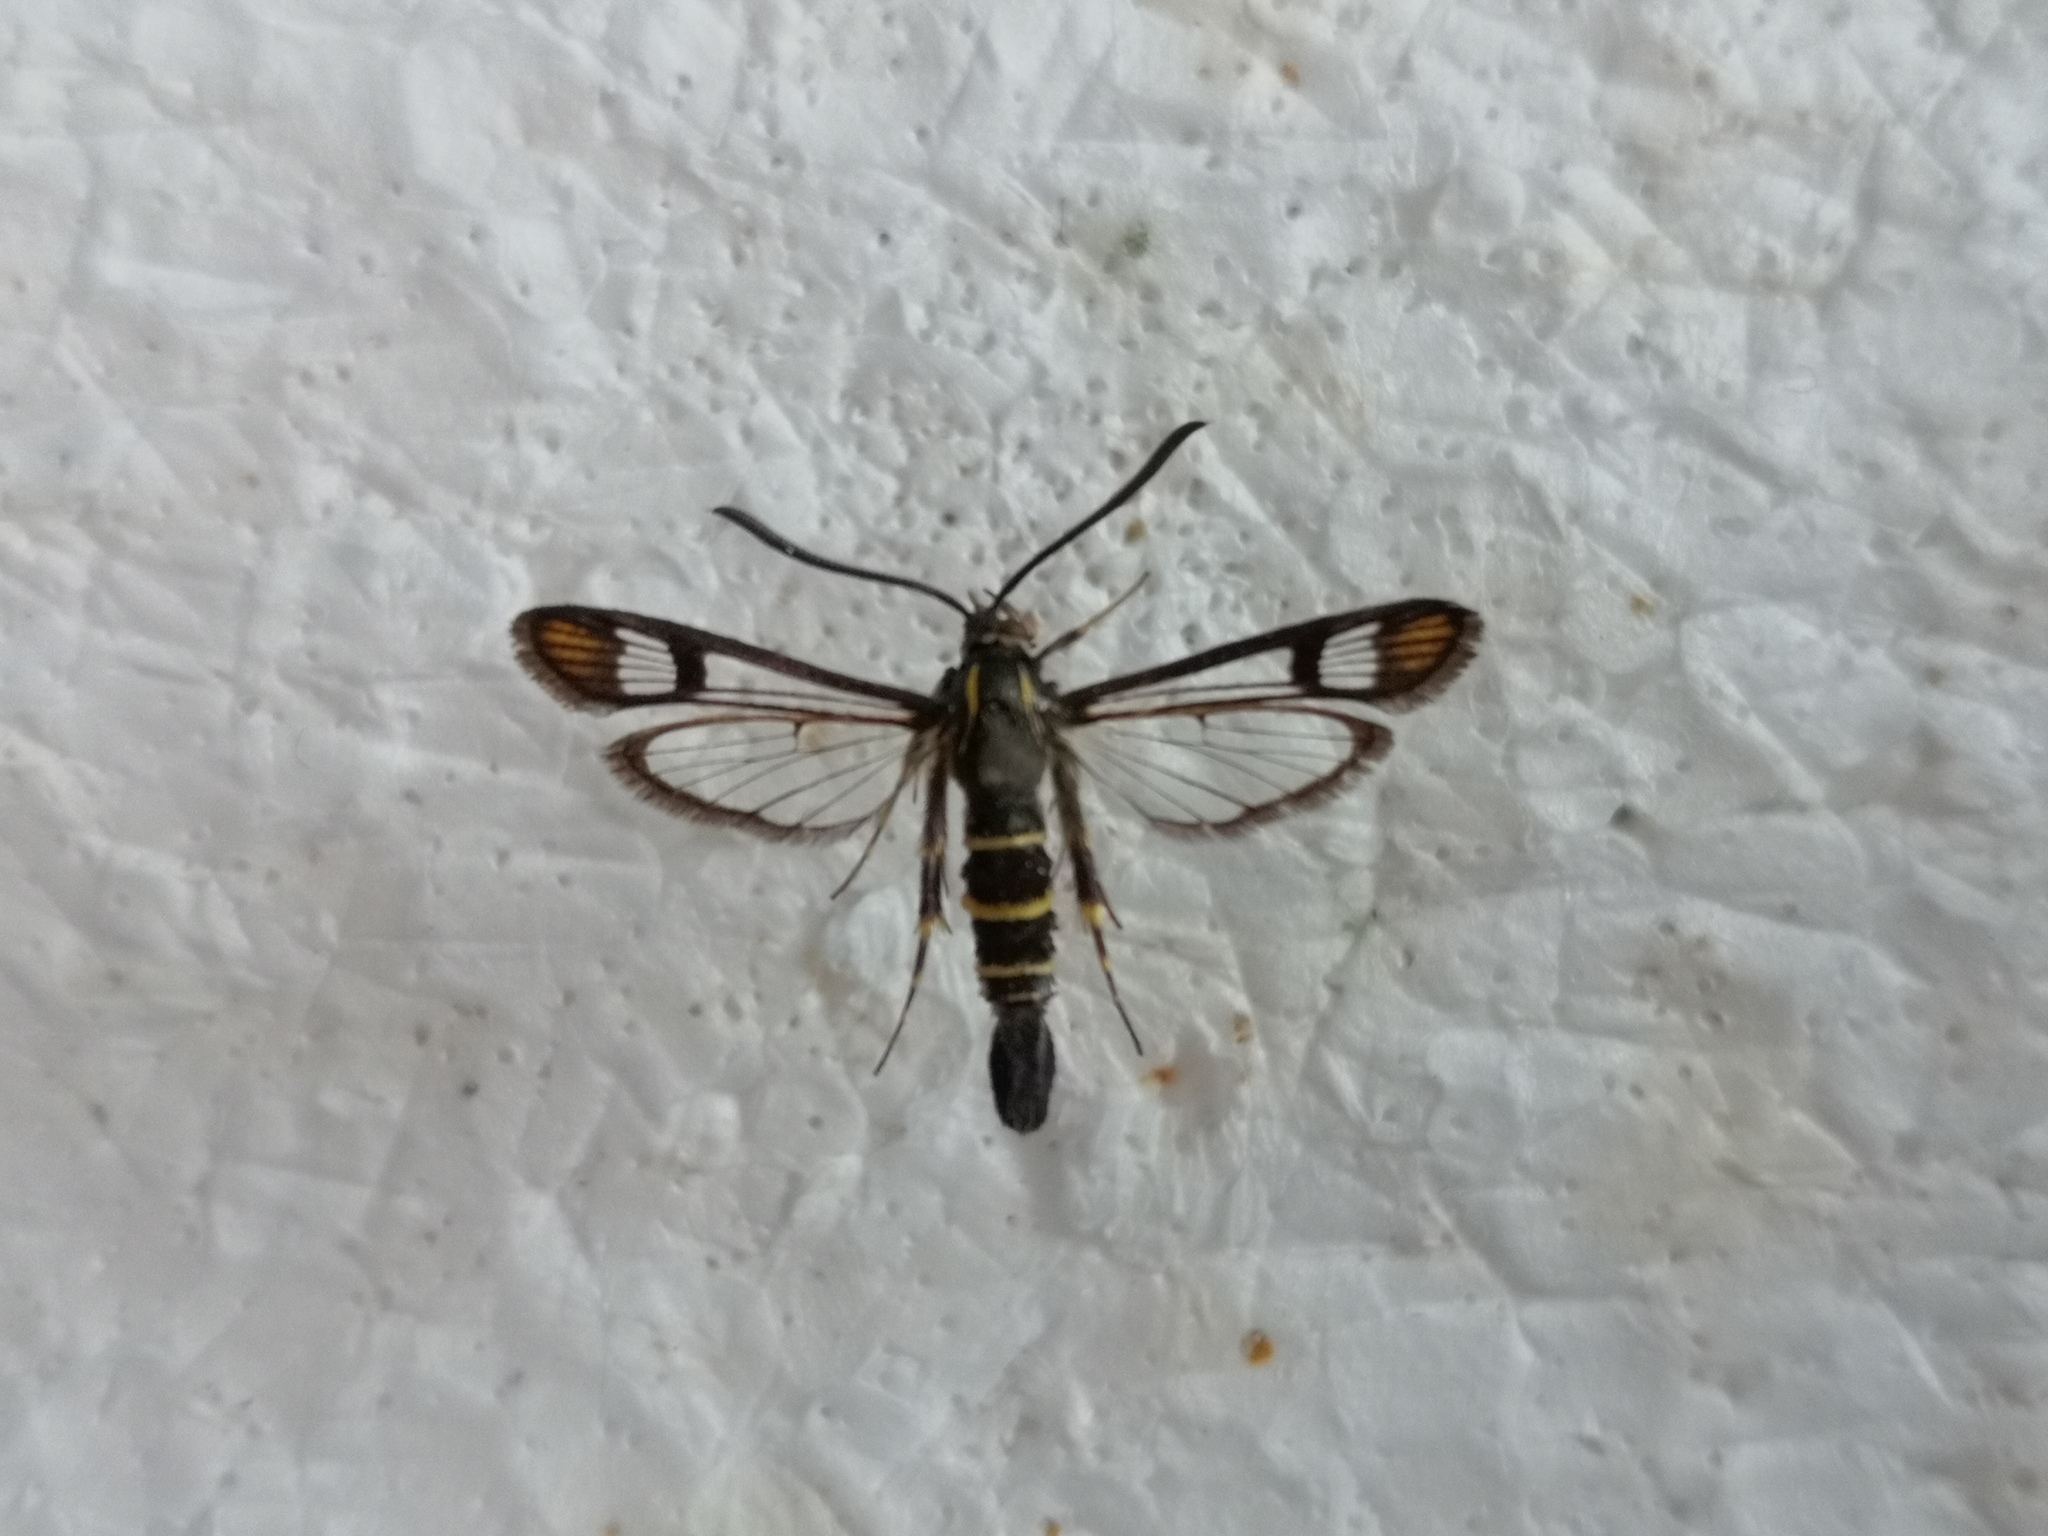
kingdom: Animalia
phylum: Arthropoda
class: Insecta
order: Lepidoptera
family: Sesiidae
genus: Synanthedon
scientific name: Synanthedon conopiformis
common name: Dale's oak clearwing
